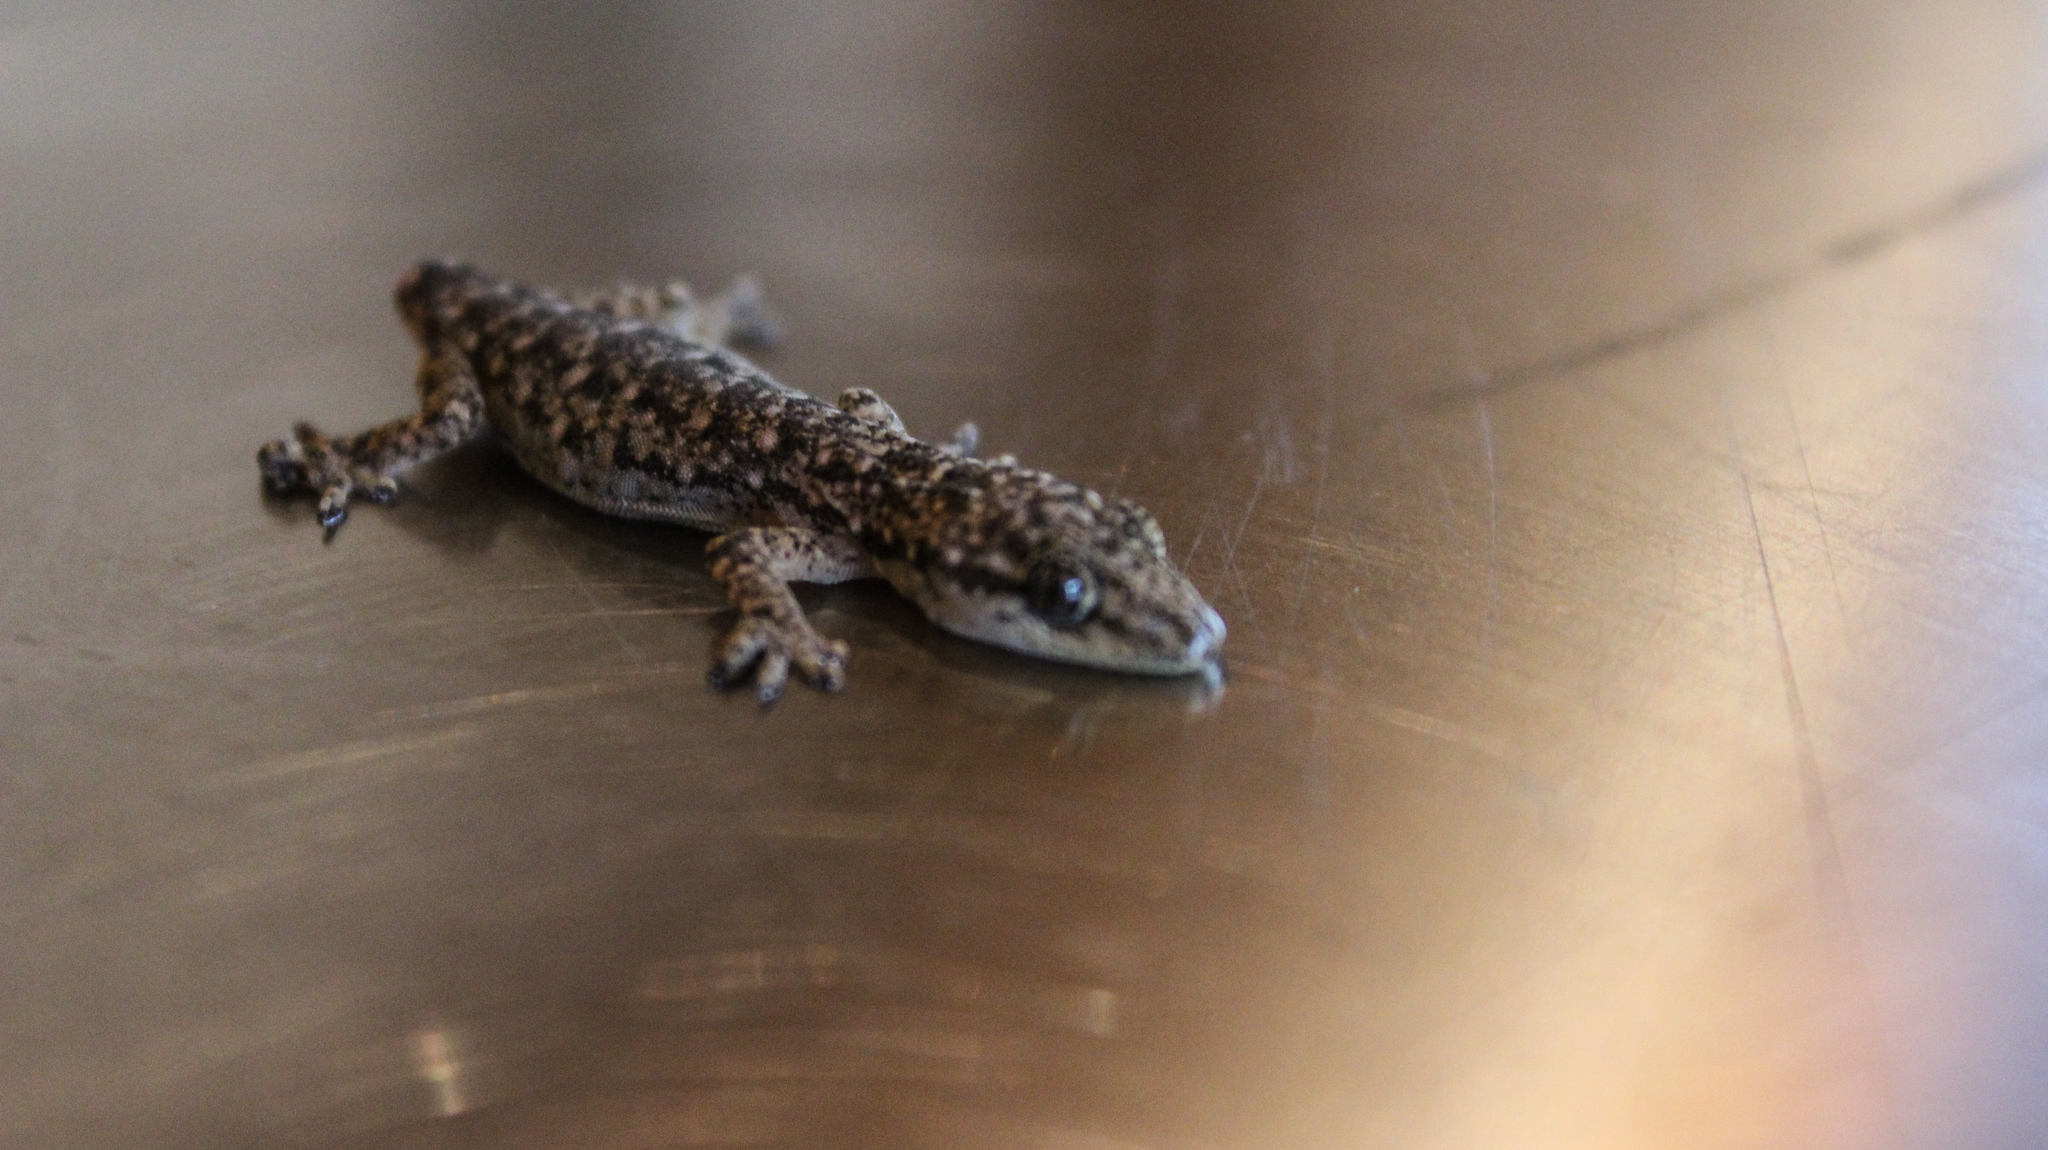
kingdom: Animalia
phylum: Chordata
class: Squamata
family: Gekkonidae
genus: Gekko
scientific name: Gekko hokouensis
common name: Kwangsi gecko
